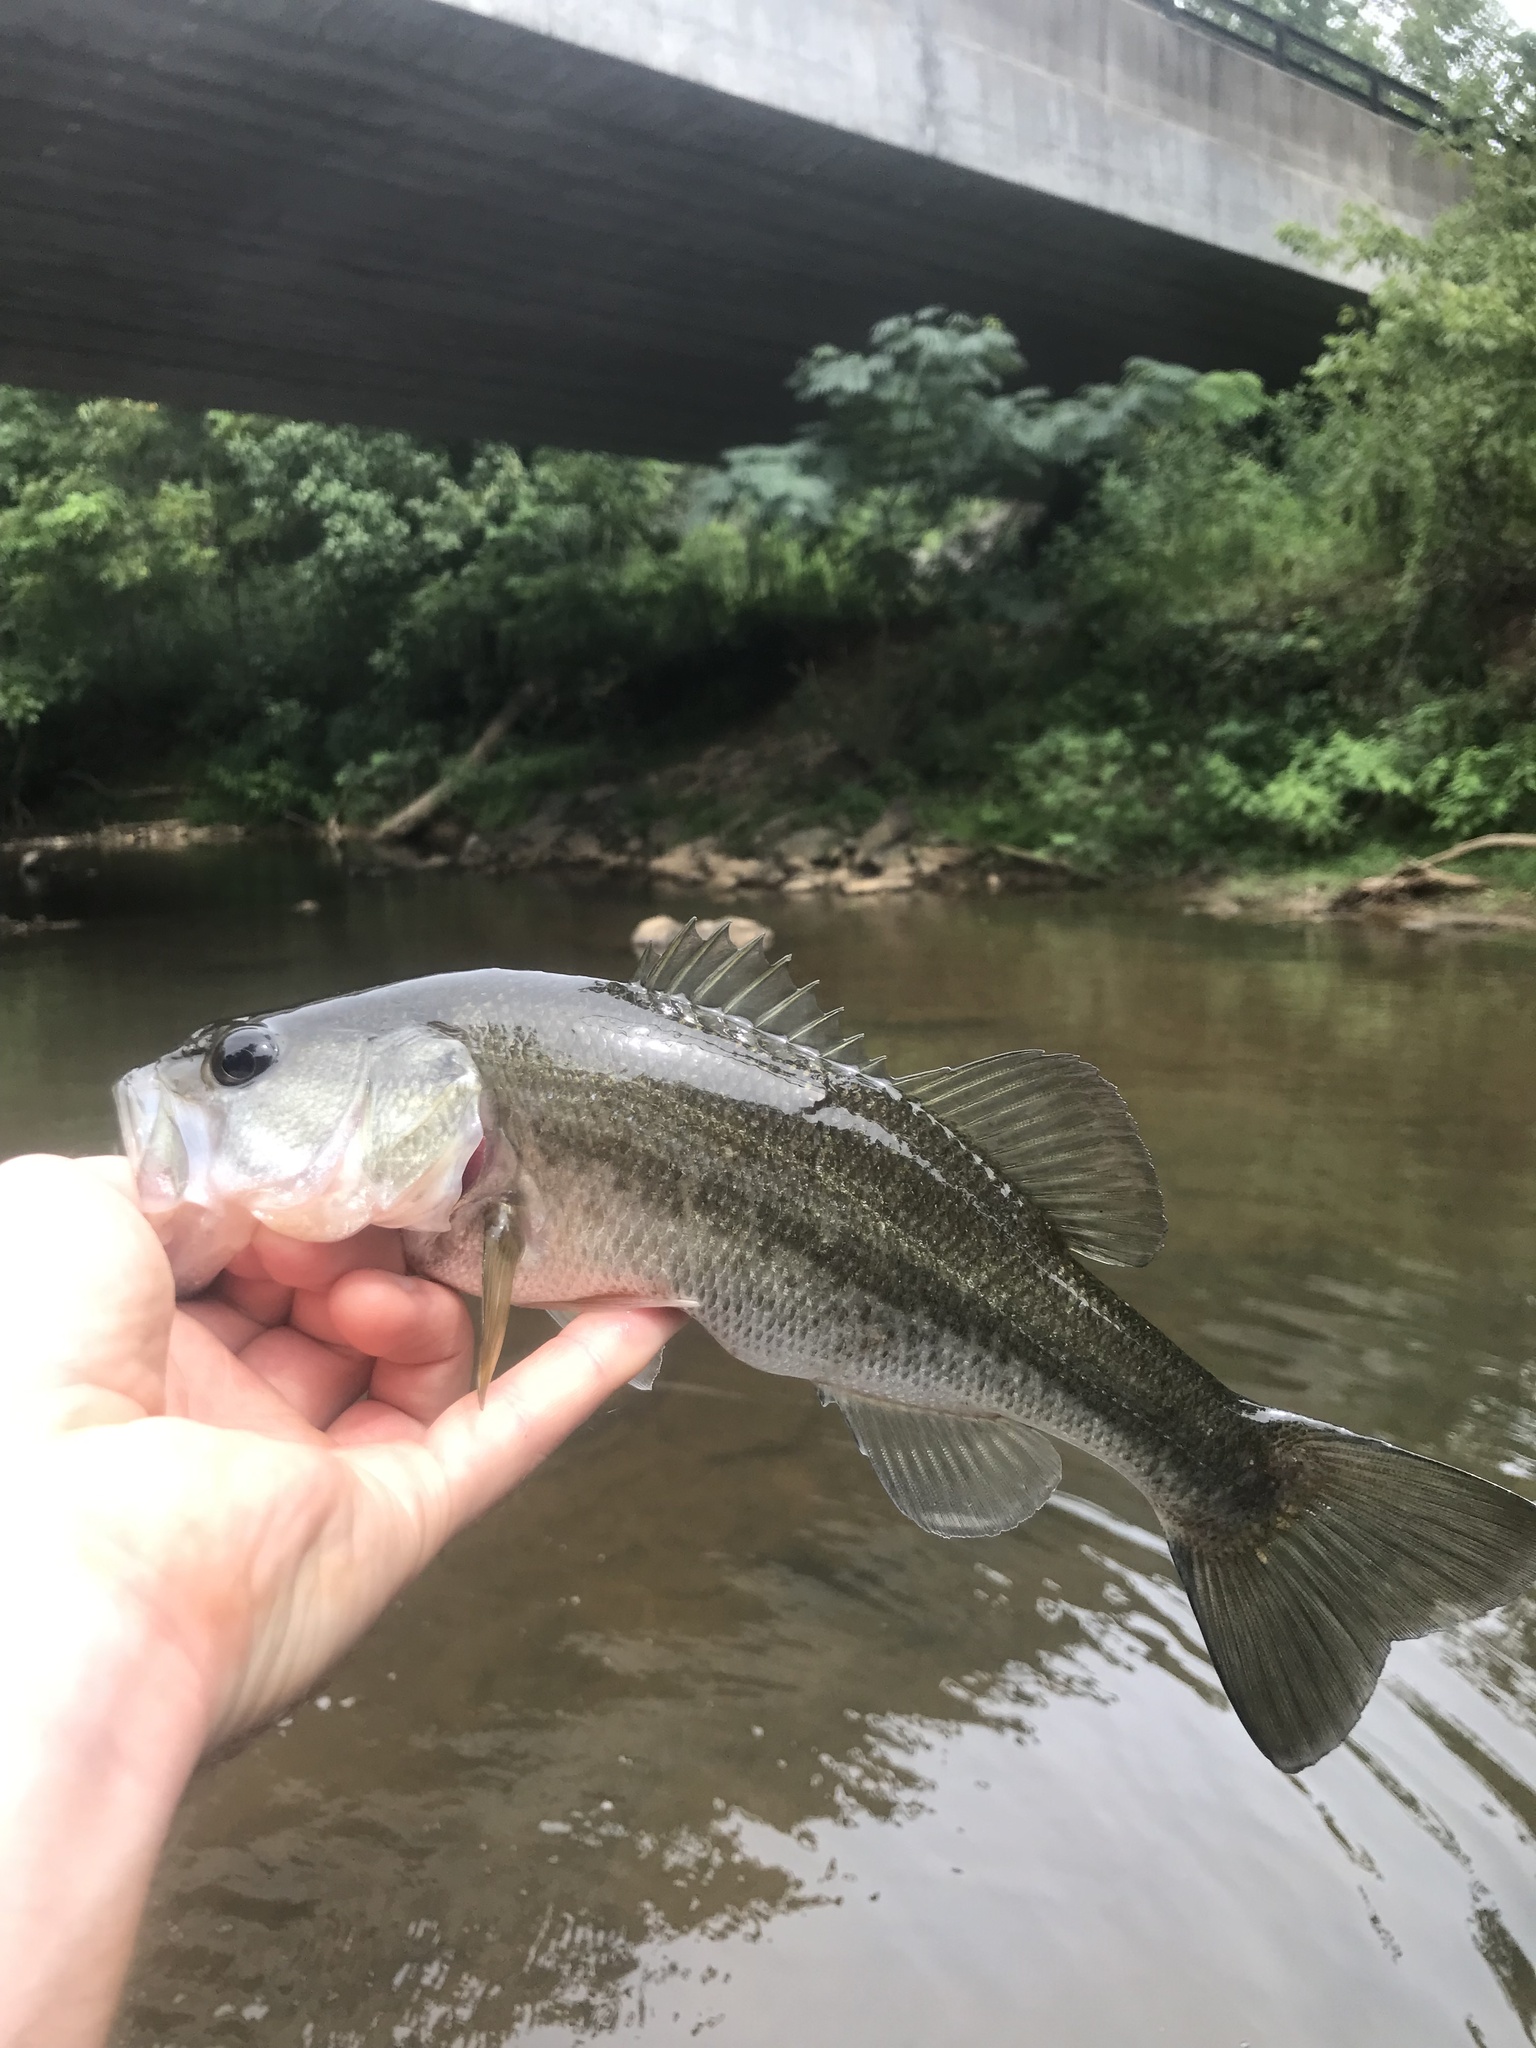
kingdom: Animalia
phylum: Chordata
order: Perciformes
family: Centrarchidae
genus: Micropterus
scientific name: Micropterus salmoides
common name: Largemouth bass
